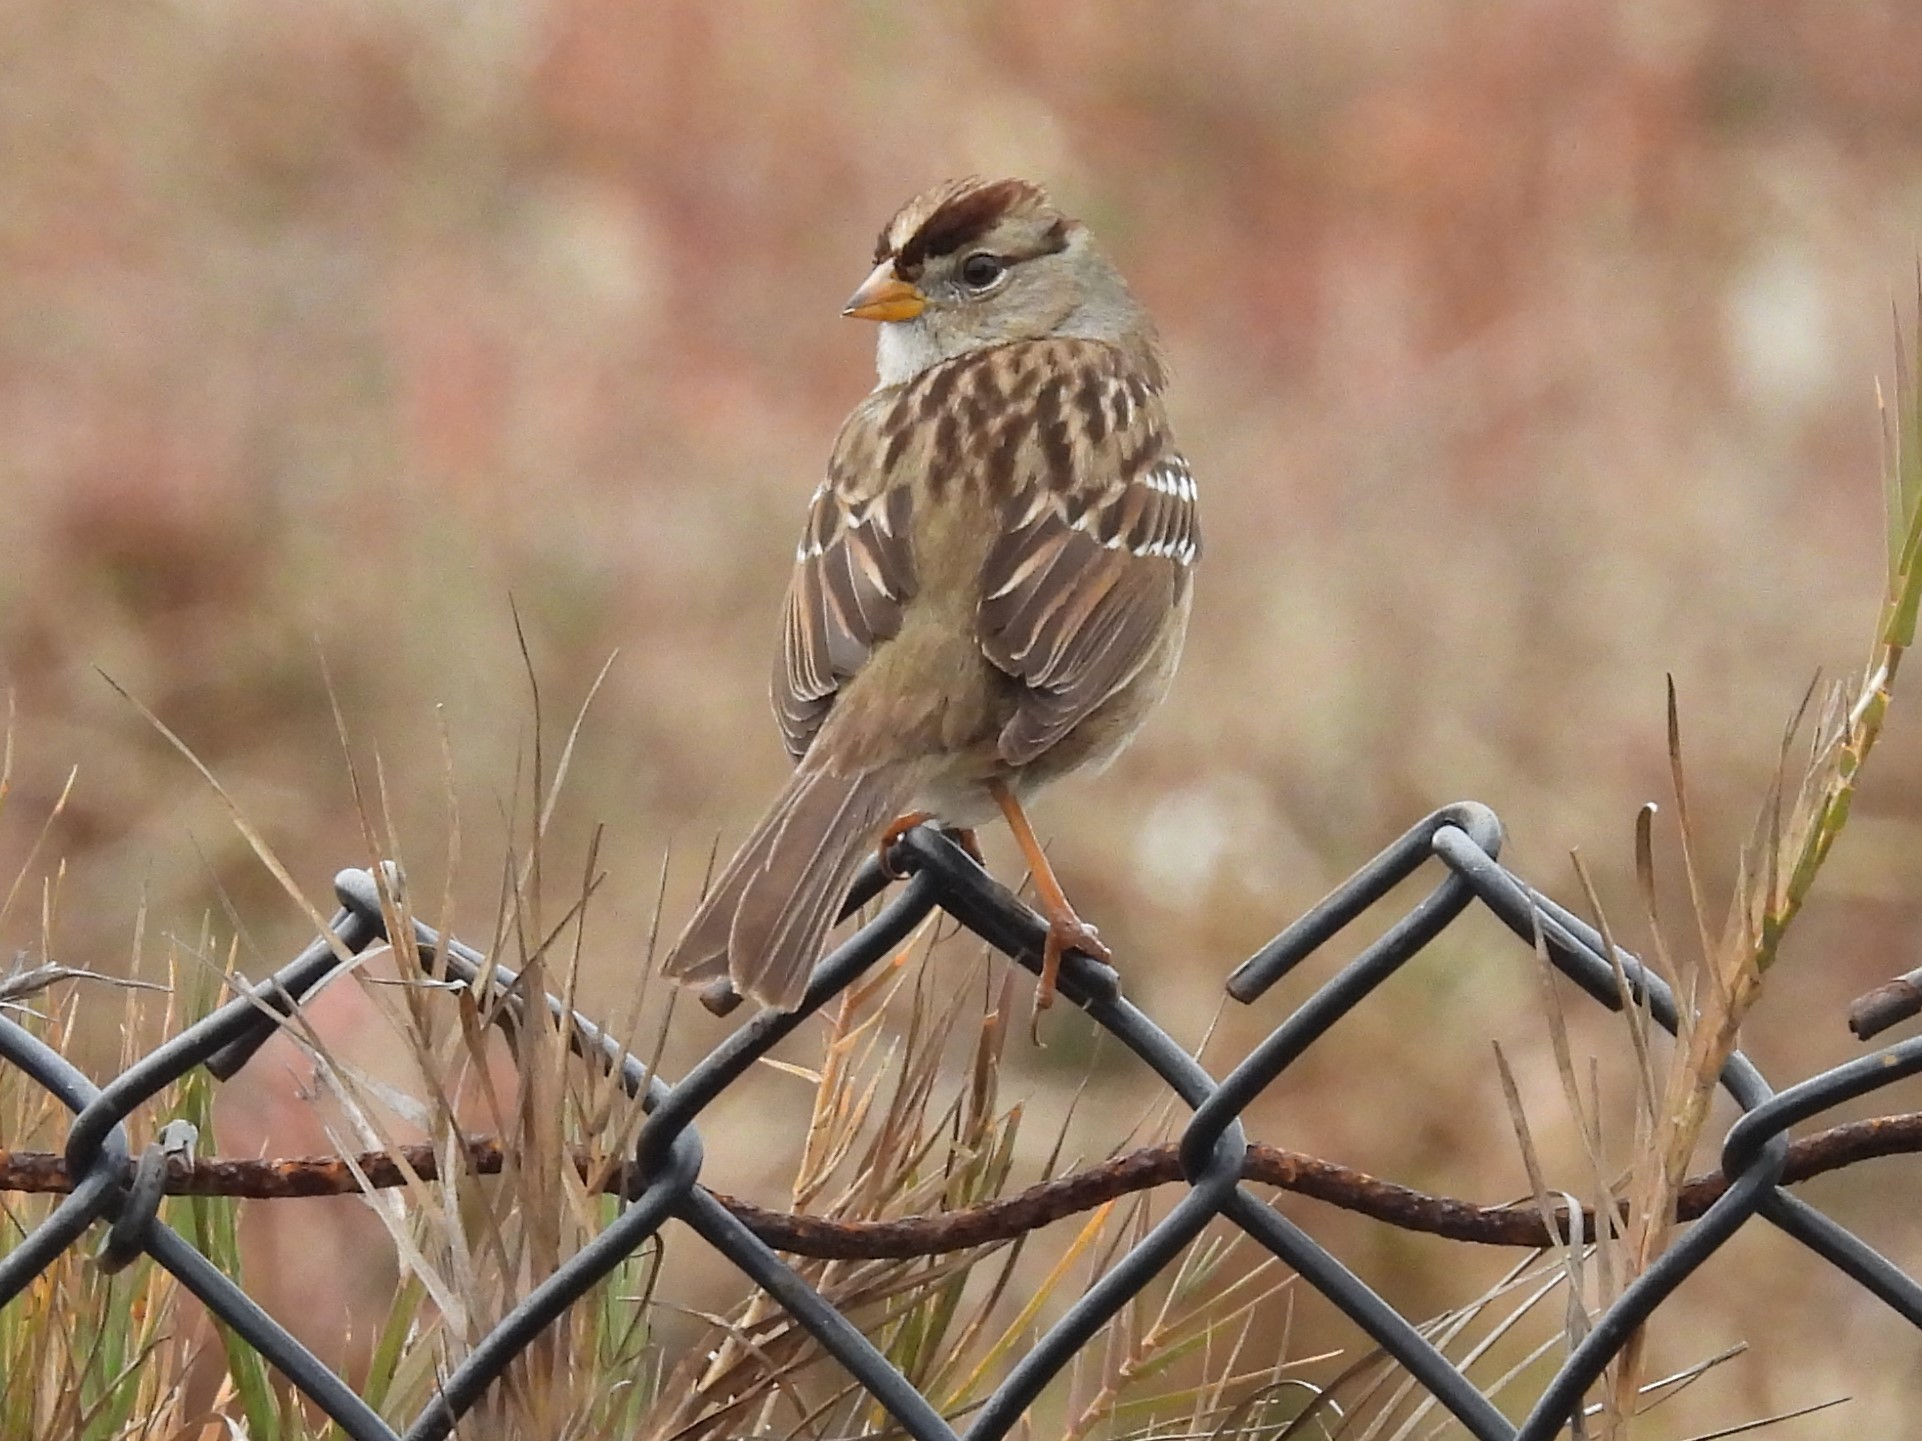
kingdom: Animalia
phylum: Chordata
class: Aves
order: Passeriformes
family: Passerellidae
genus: Zonotrichia
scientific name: Zonotrichia leucophrys
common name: White-crowned sparrow
